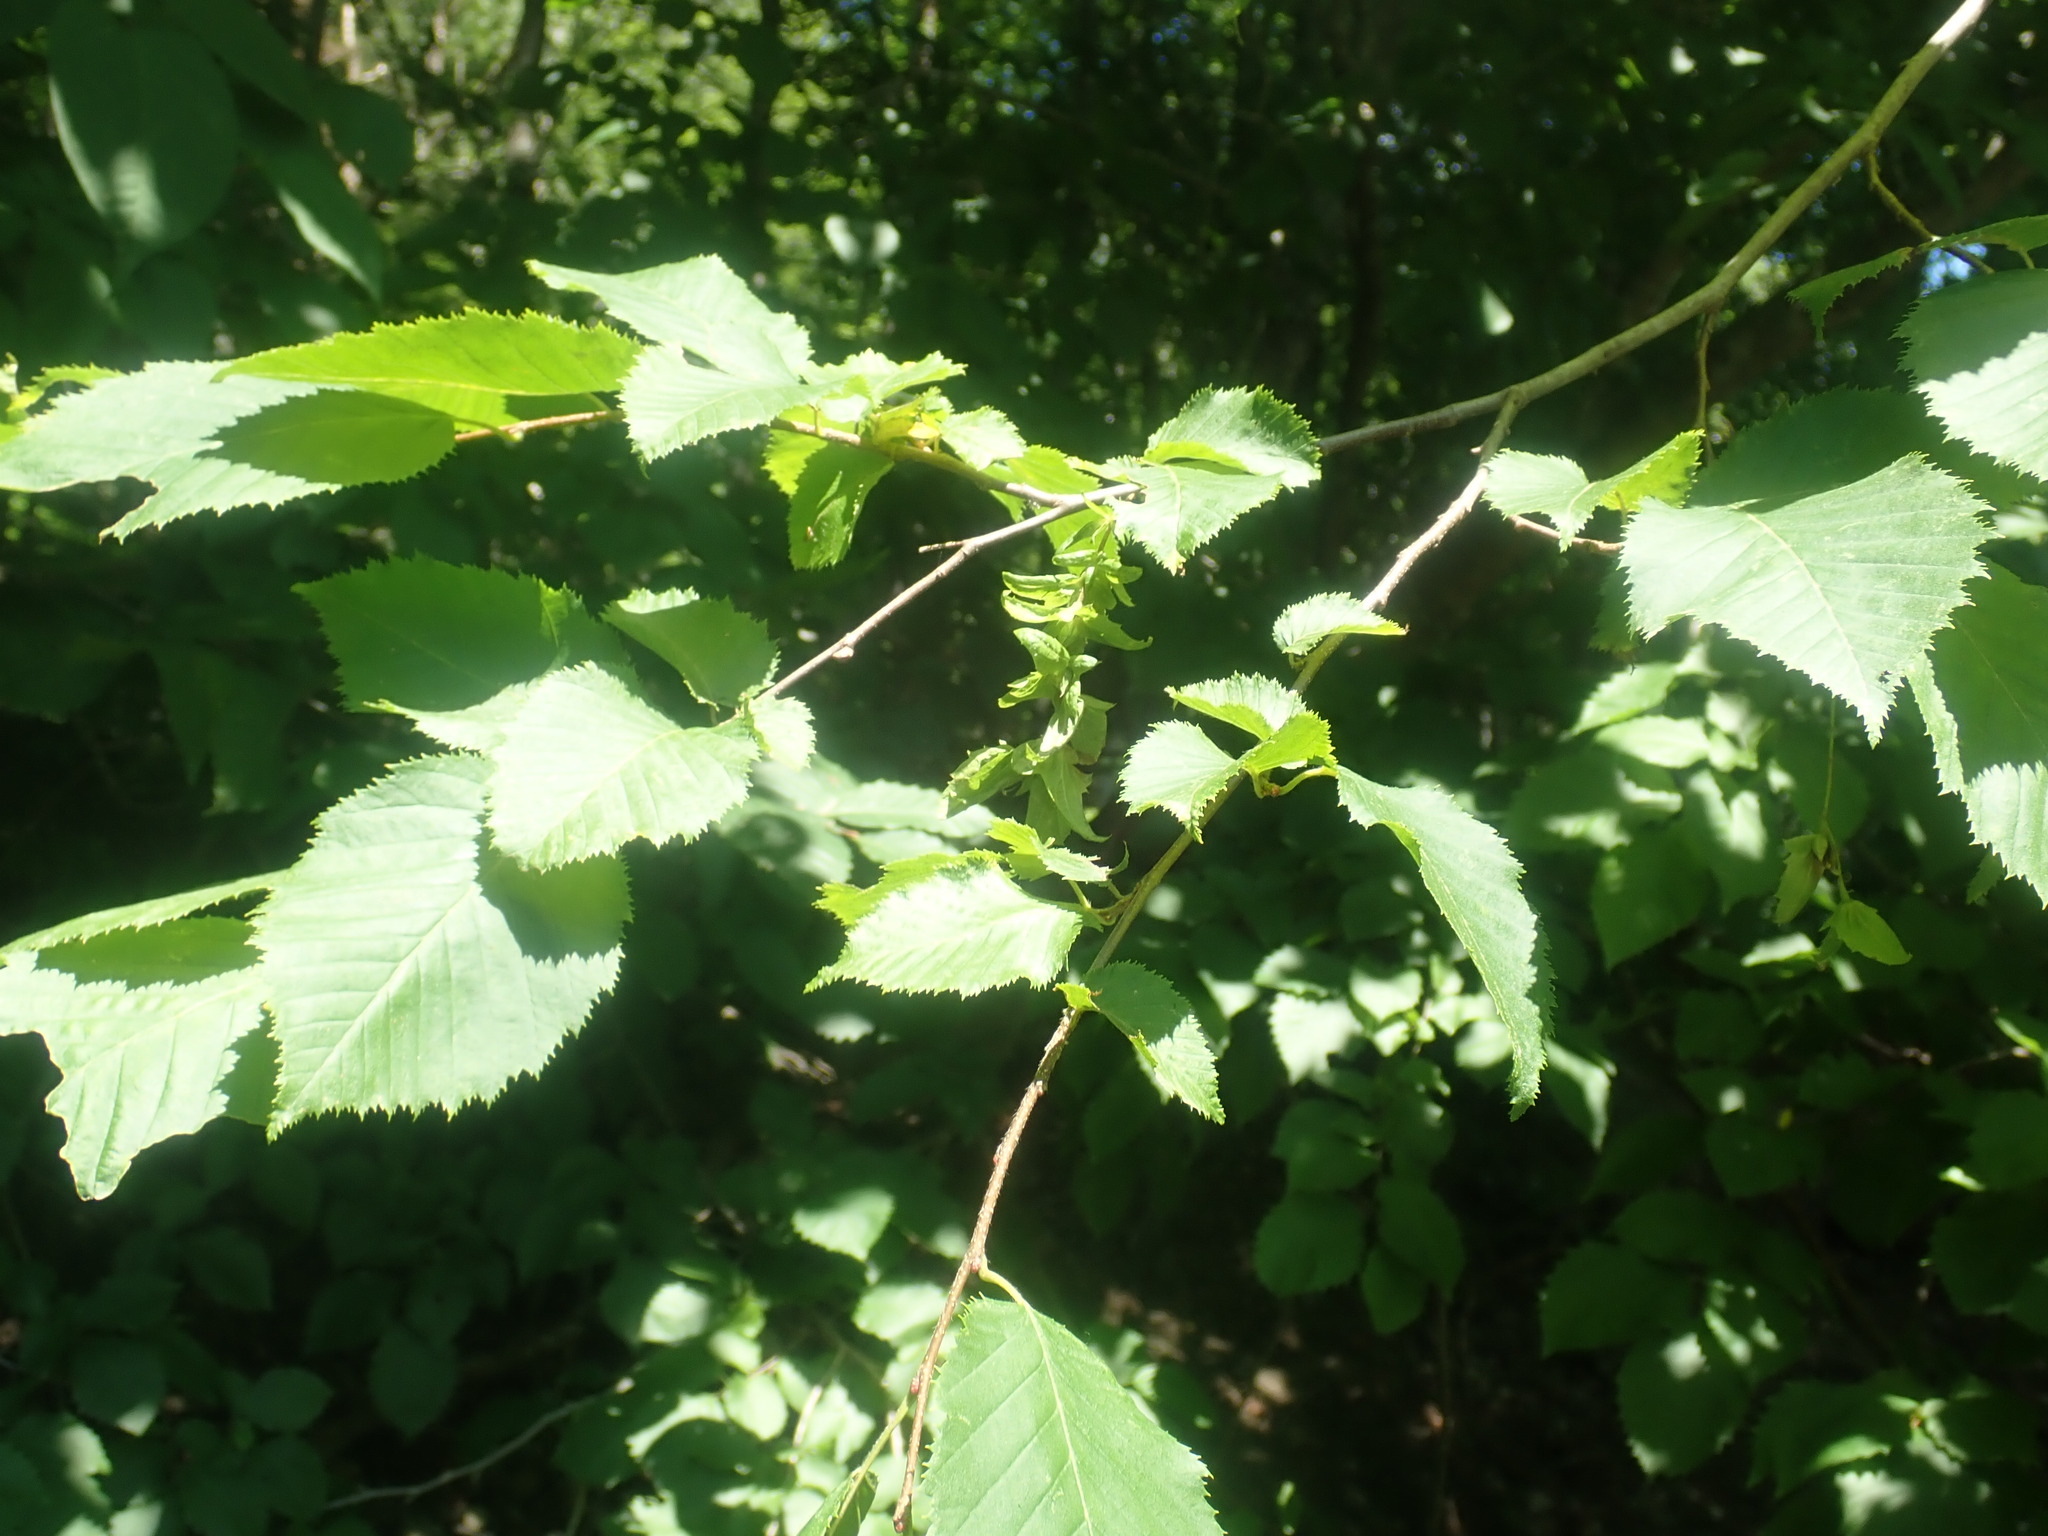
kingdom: Plantae
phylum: Tracheophyta
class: Magnoliopsida
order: Fagales
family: Betulaceae
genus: Carpinus
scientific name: Carpinus caroliniana
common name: American hornbeam
